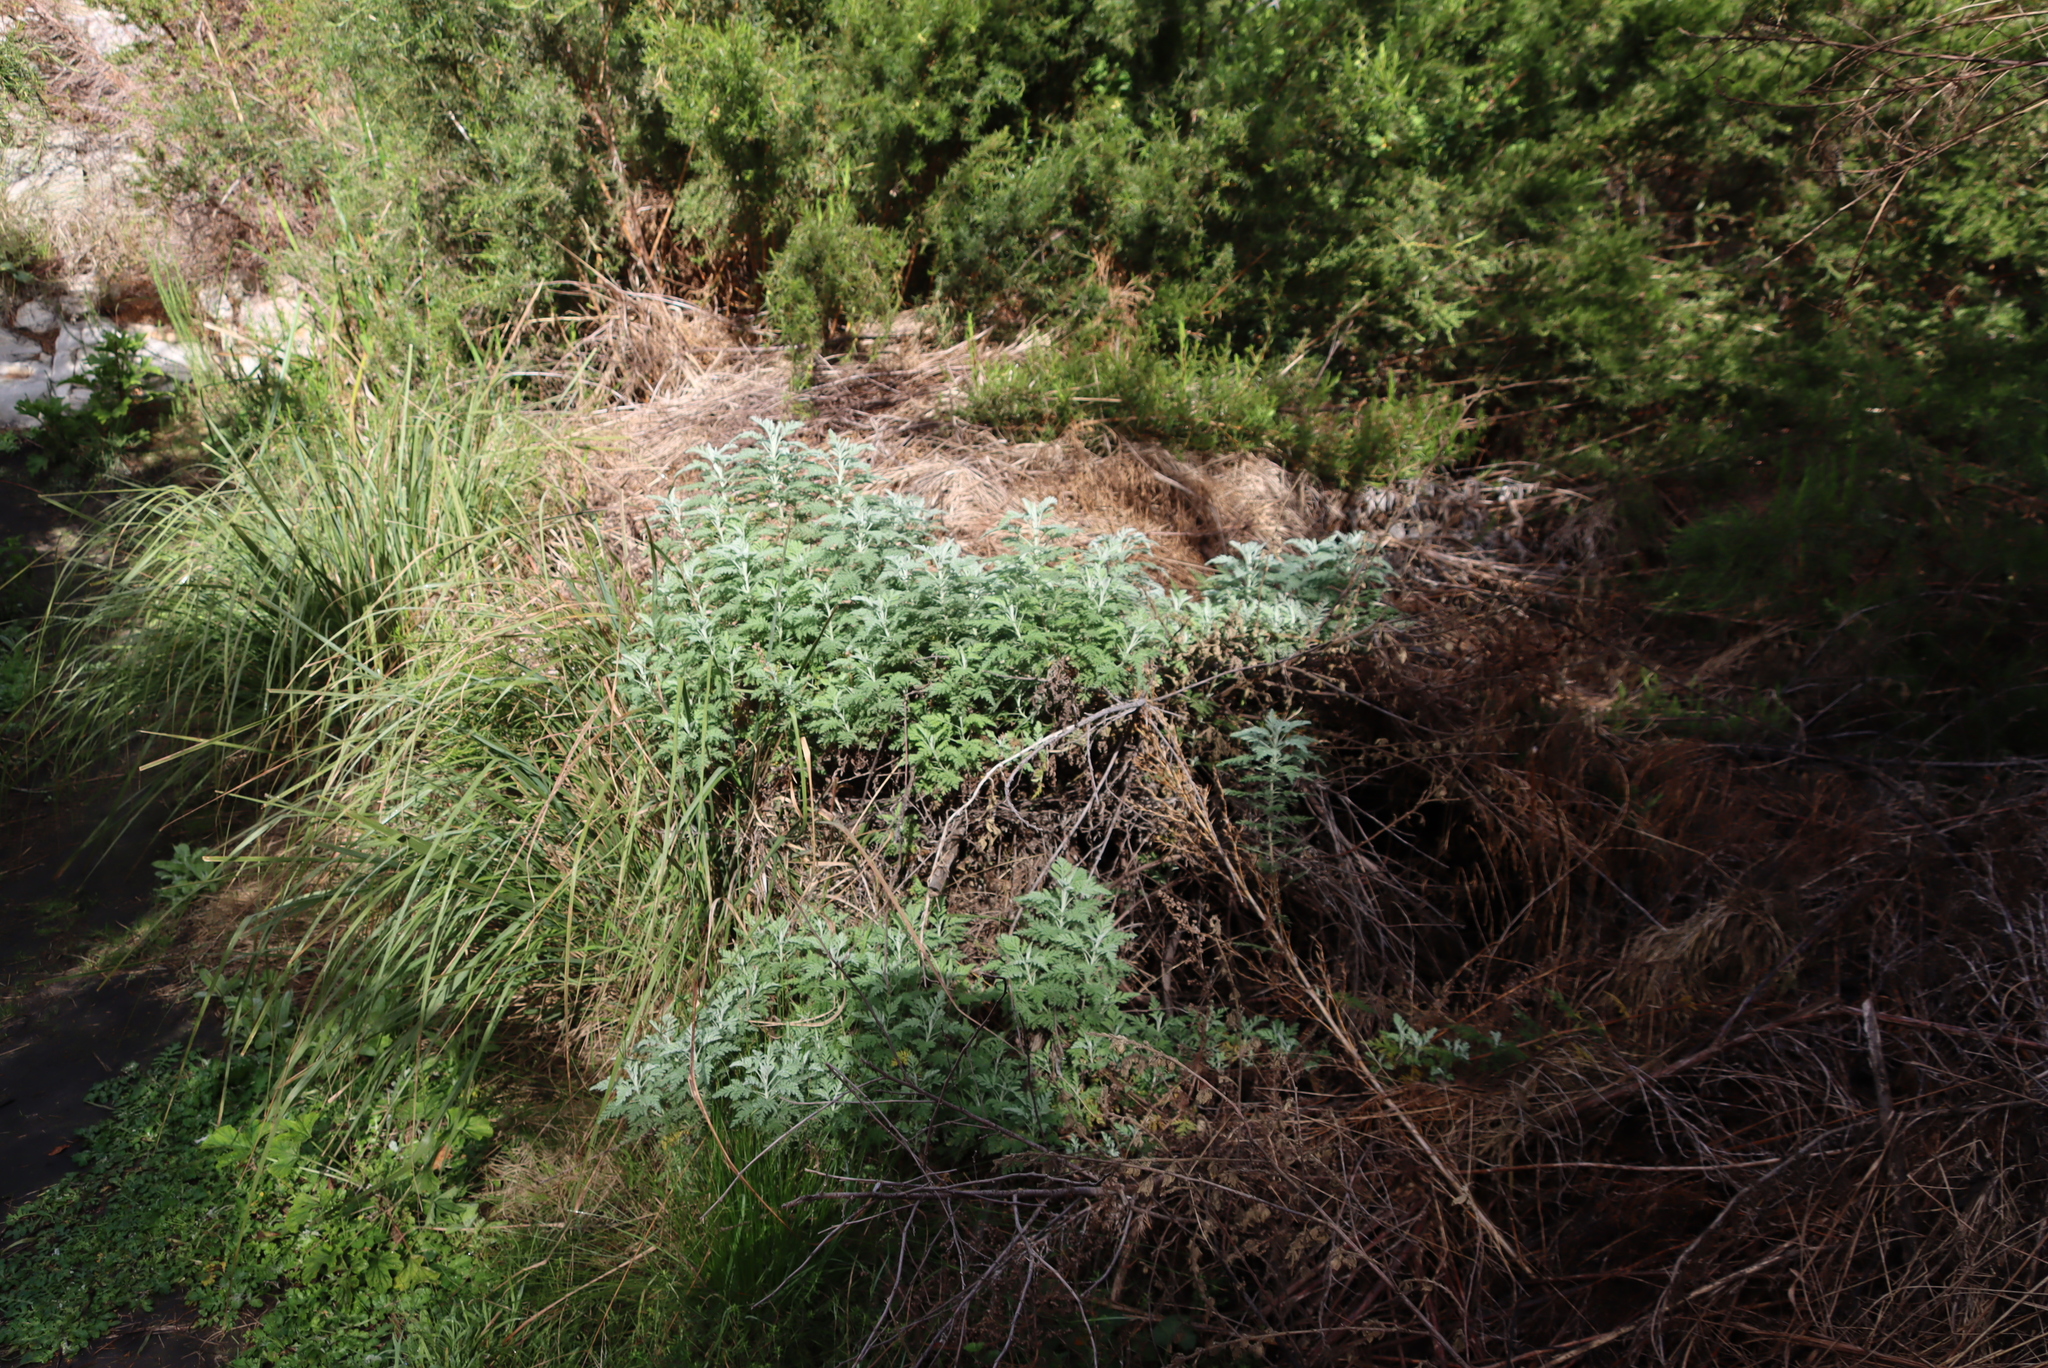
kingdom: Plantae
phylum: Tracheophyta
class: Magnoliopsida
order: Asterales
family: Asteraceae
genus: Artemisia
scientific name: Artemisia afra
